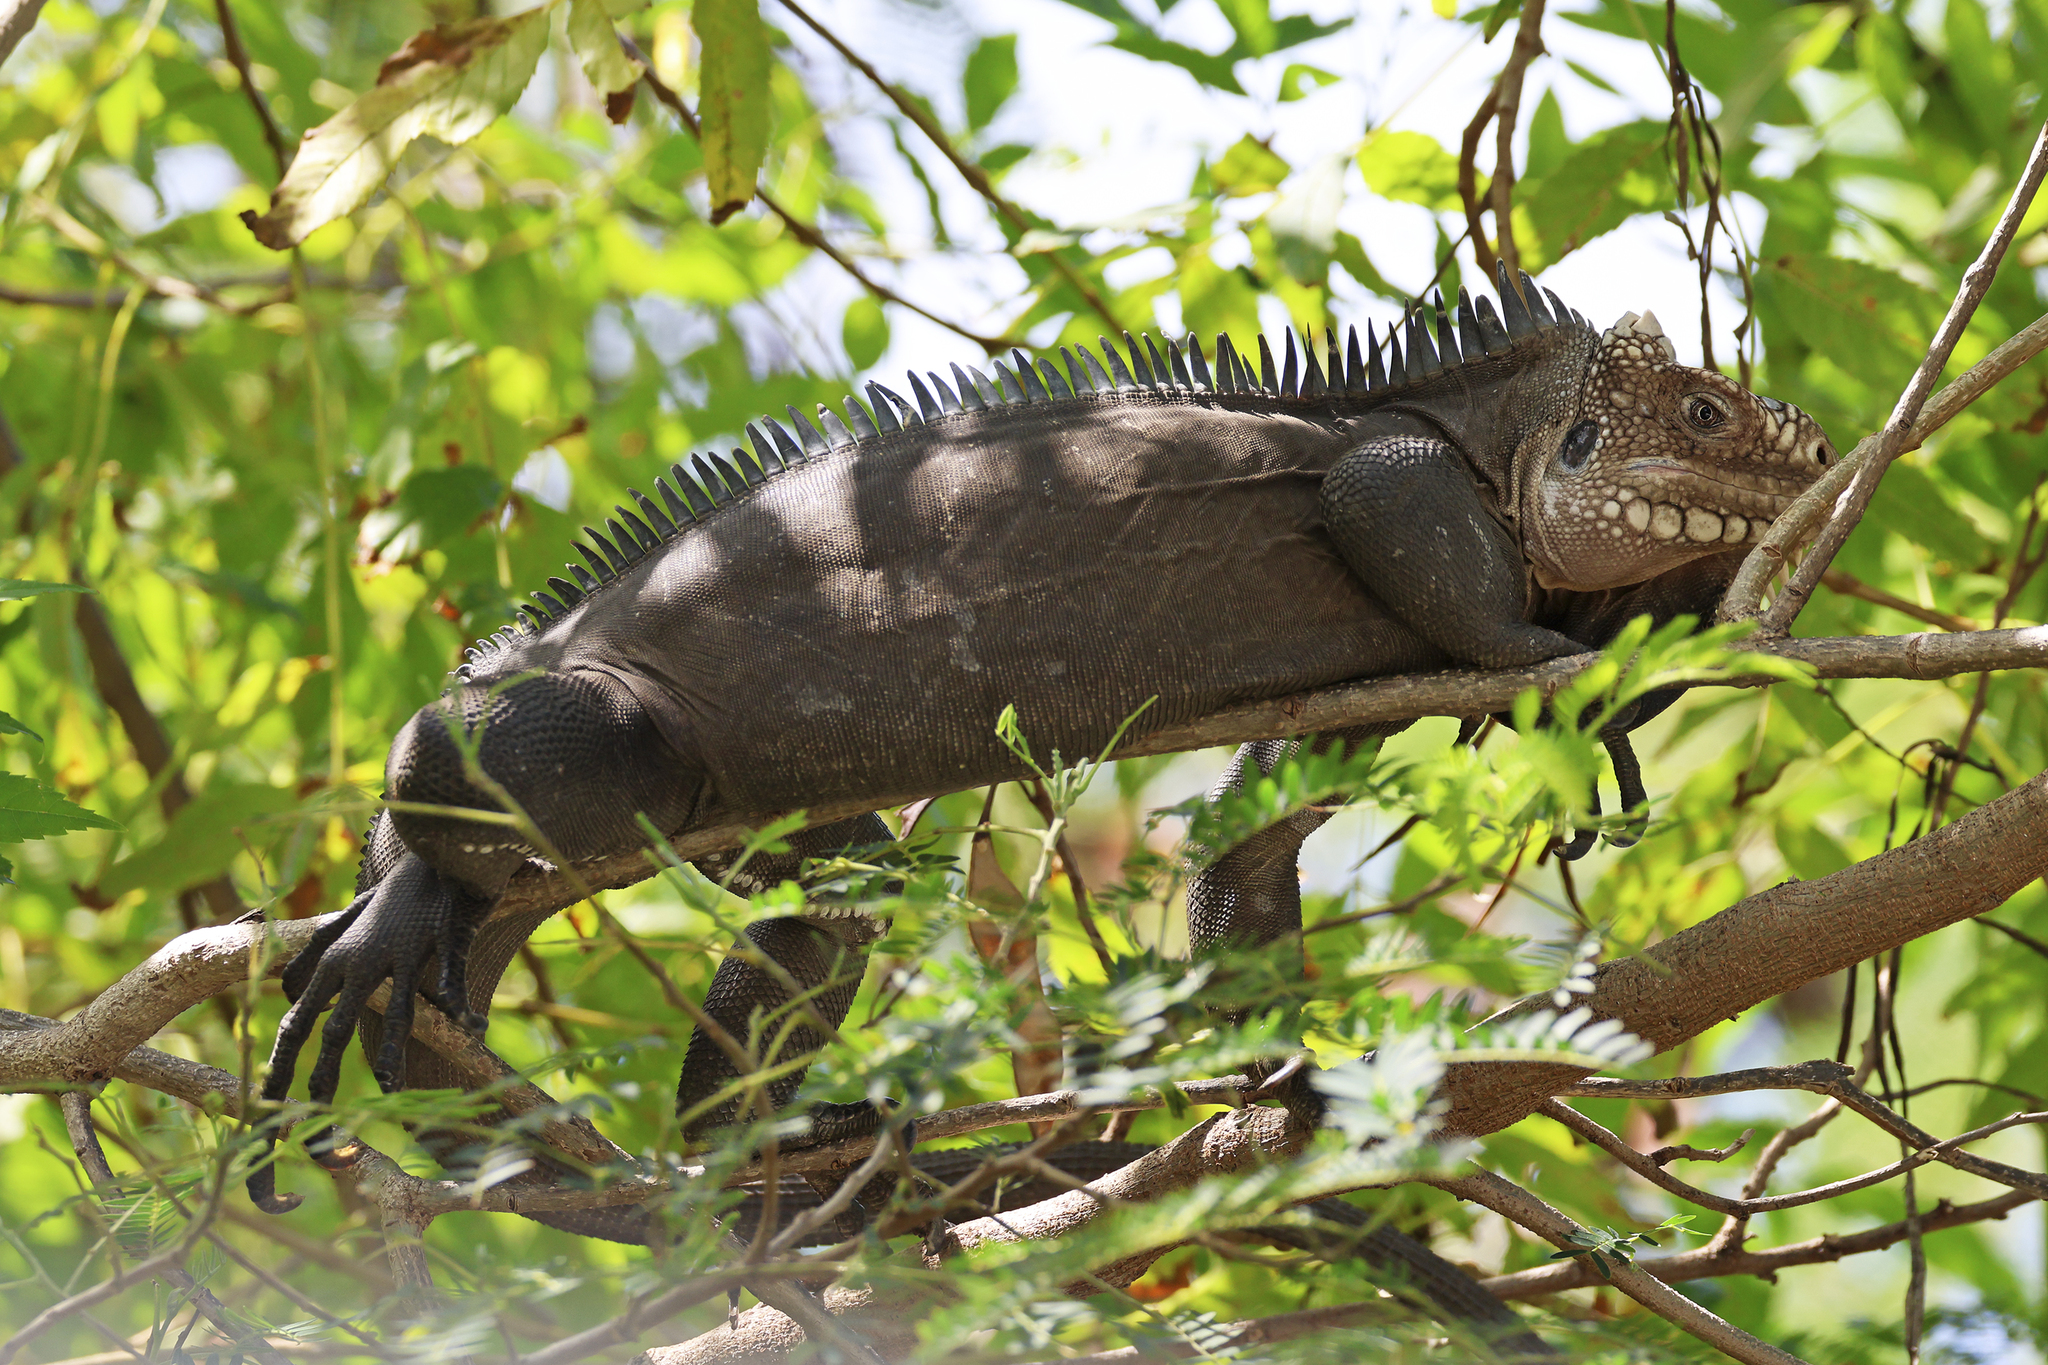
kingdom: Animalia
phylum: Chordata
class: Squamata
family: Iguanidae
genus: Iguana
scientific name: Iguana delicatissima
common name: West indian iguana
